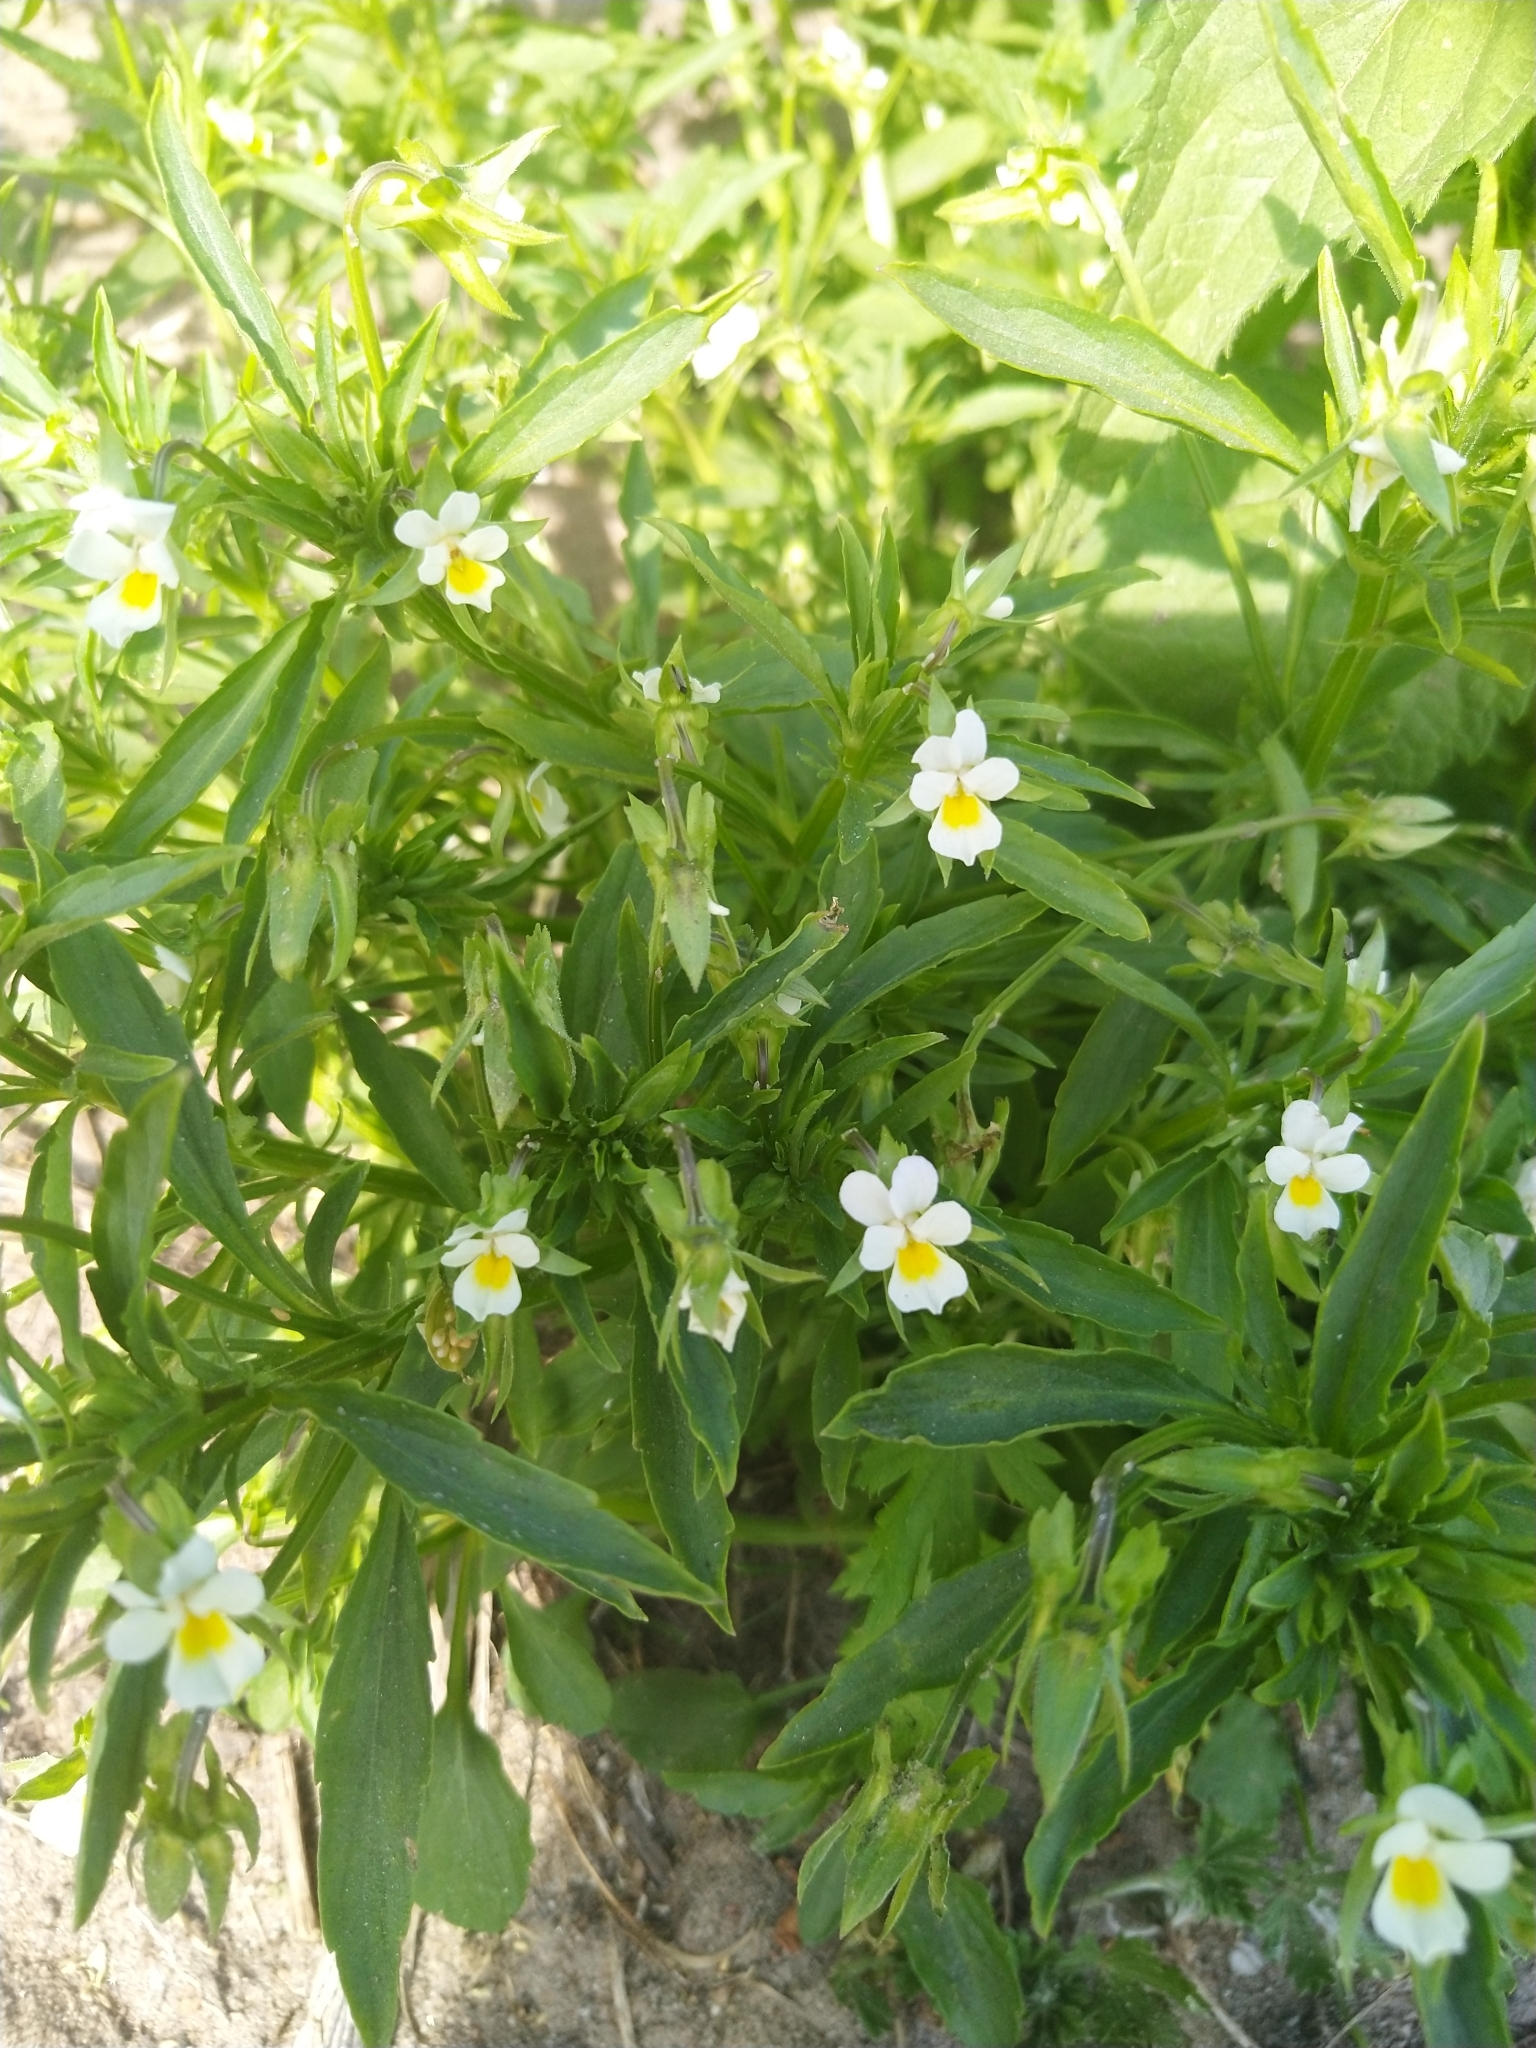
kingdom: Plantae
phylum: Tracheophyta
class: Magnoliopsida
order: Malpighiales
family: Violaceae
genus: Viola
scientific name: Viola arvensis
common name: Field pansy
